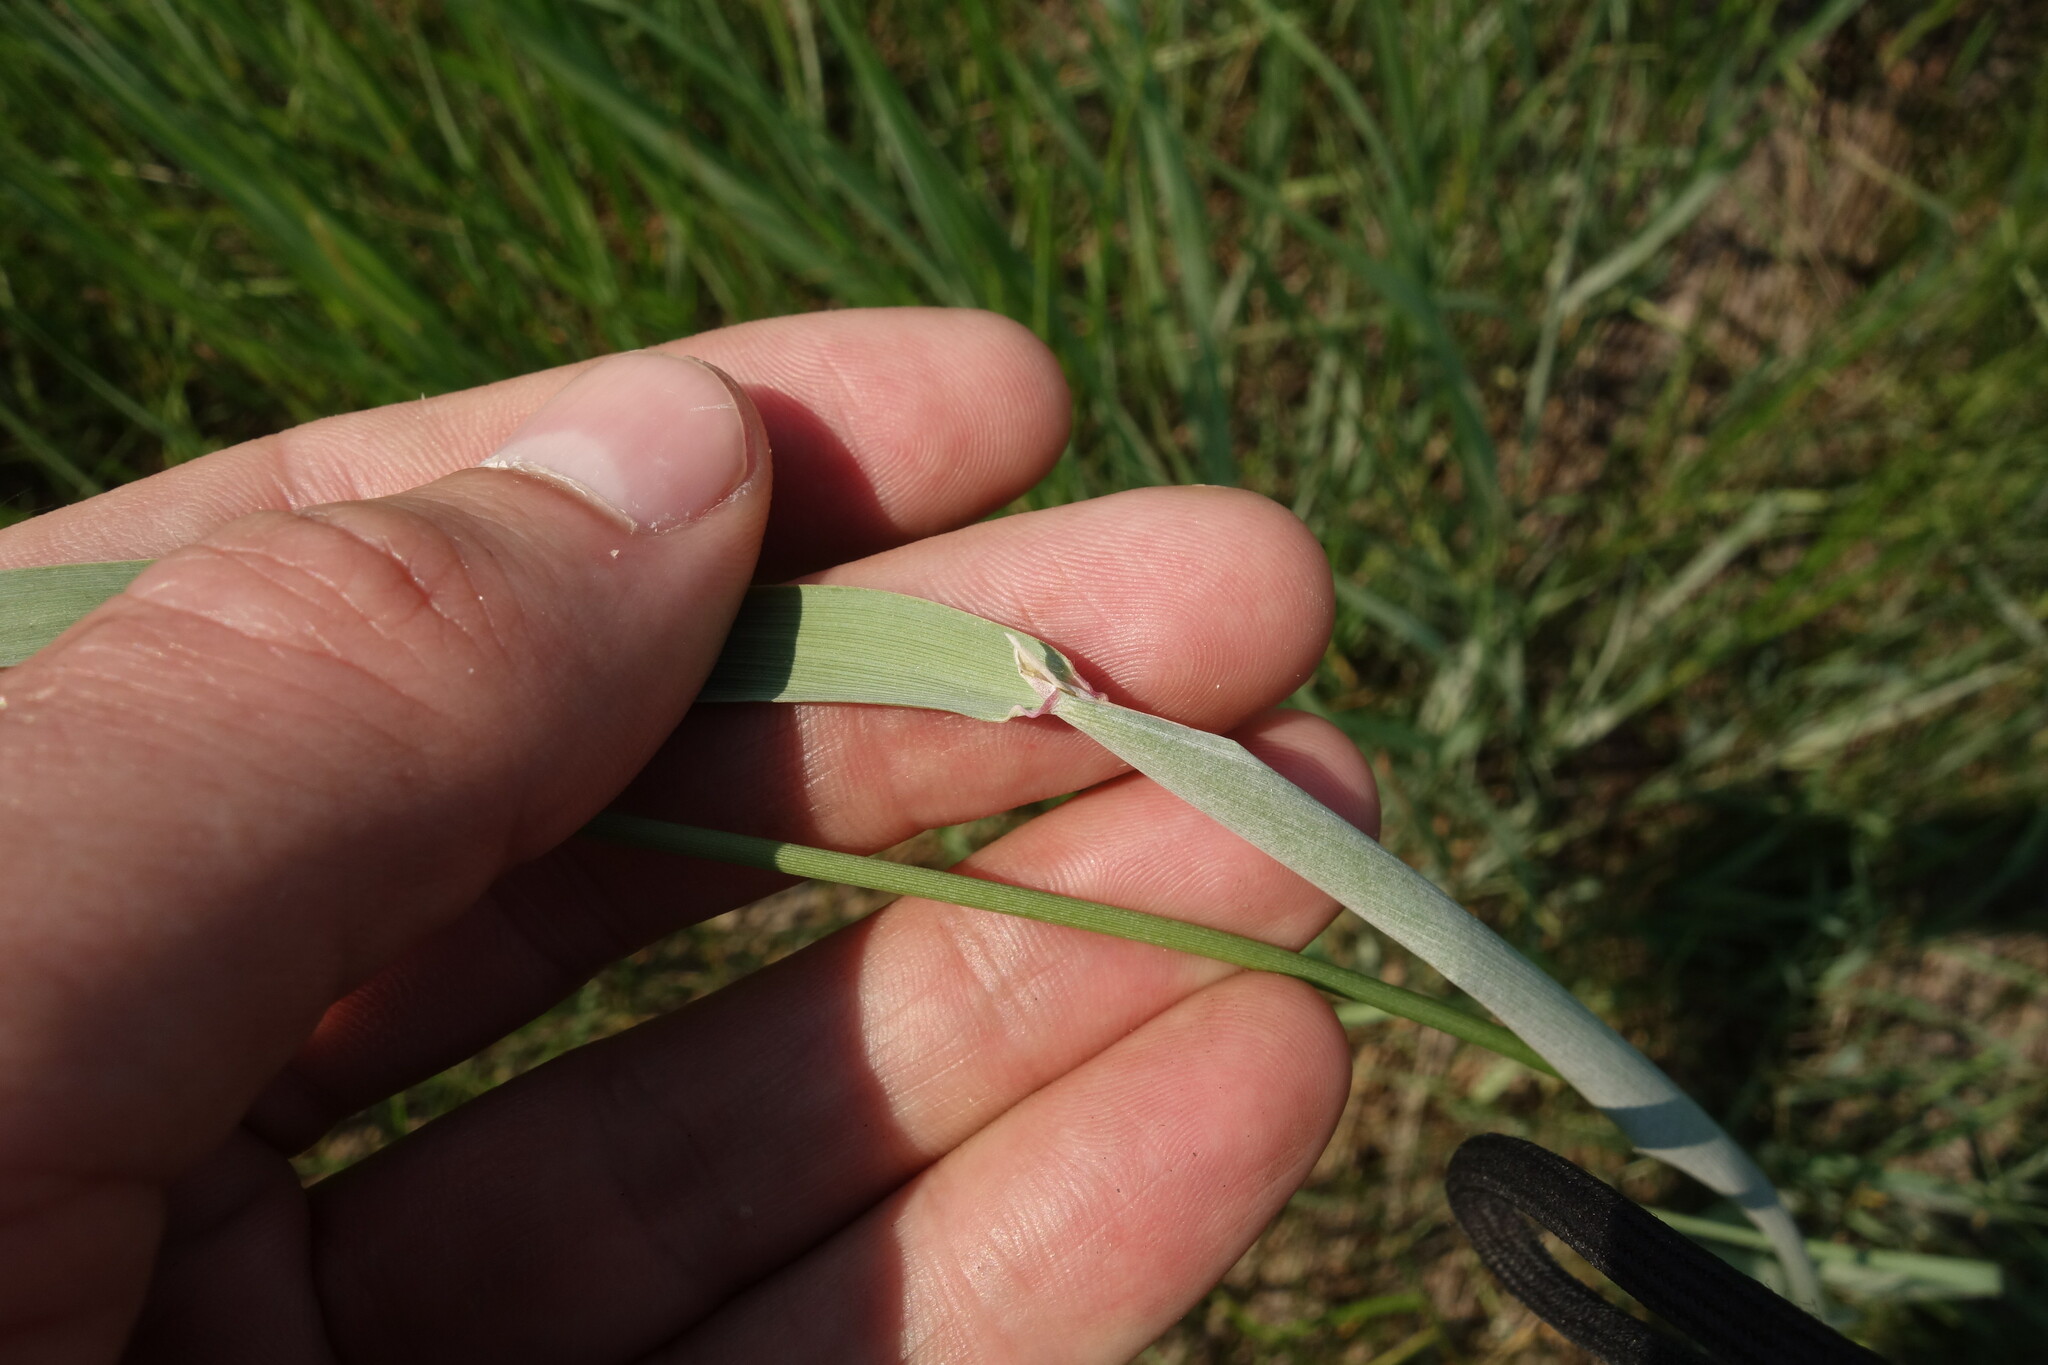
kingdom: Plantae
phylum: Tracheophyta
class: Liliopsida
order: Poales
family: Poaceae
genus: Alopecurus
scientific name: Alopecurus arundinaceus
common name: Creeping meadow foxtail
